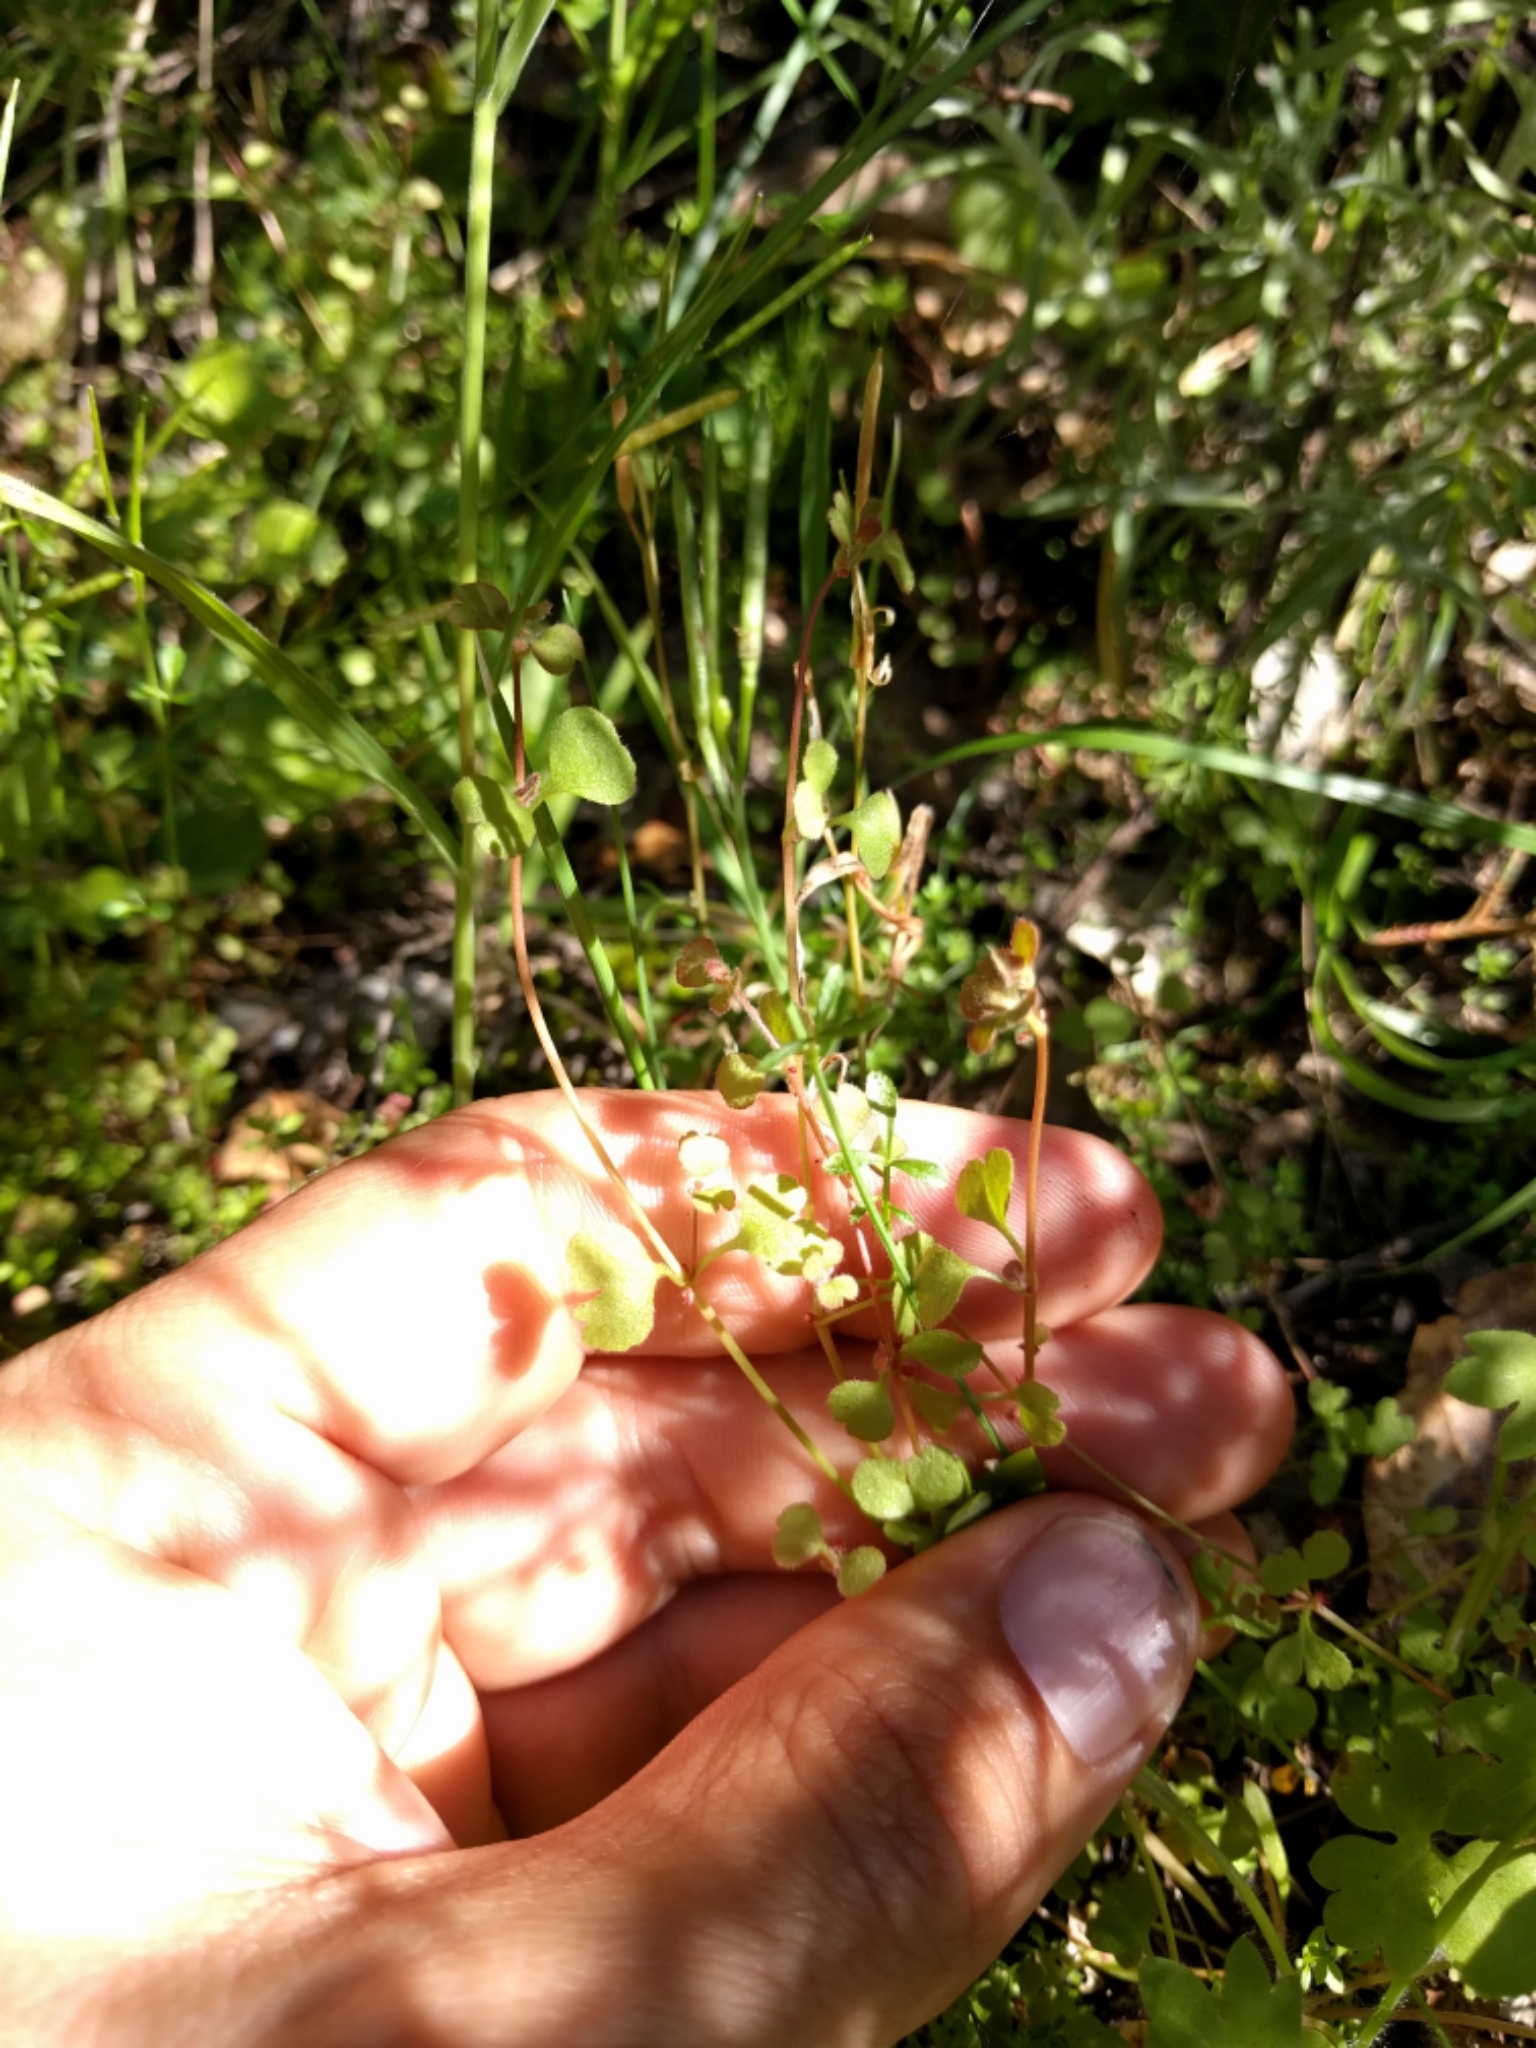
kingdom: Plantae
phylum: Tracheophyta
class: Magnoliopsida
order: Caryophyllales
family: Polygonaceae
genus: Pterostegia
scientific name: Pterostegia drymarioides
